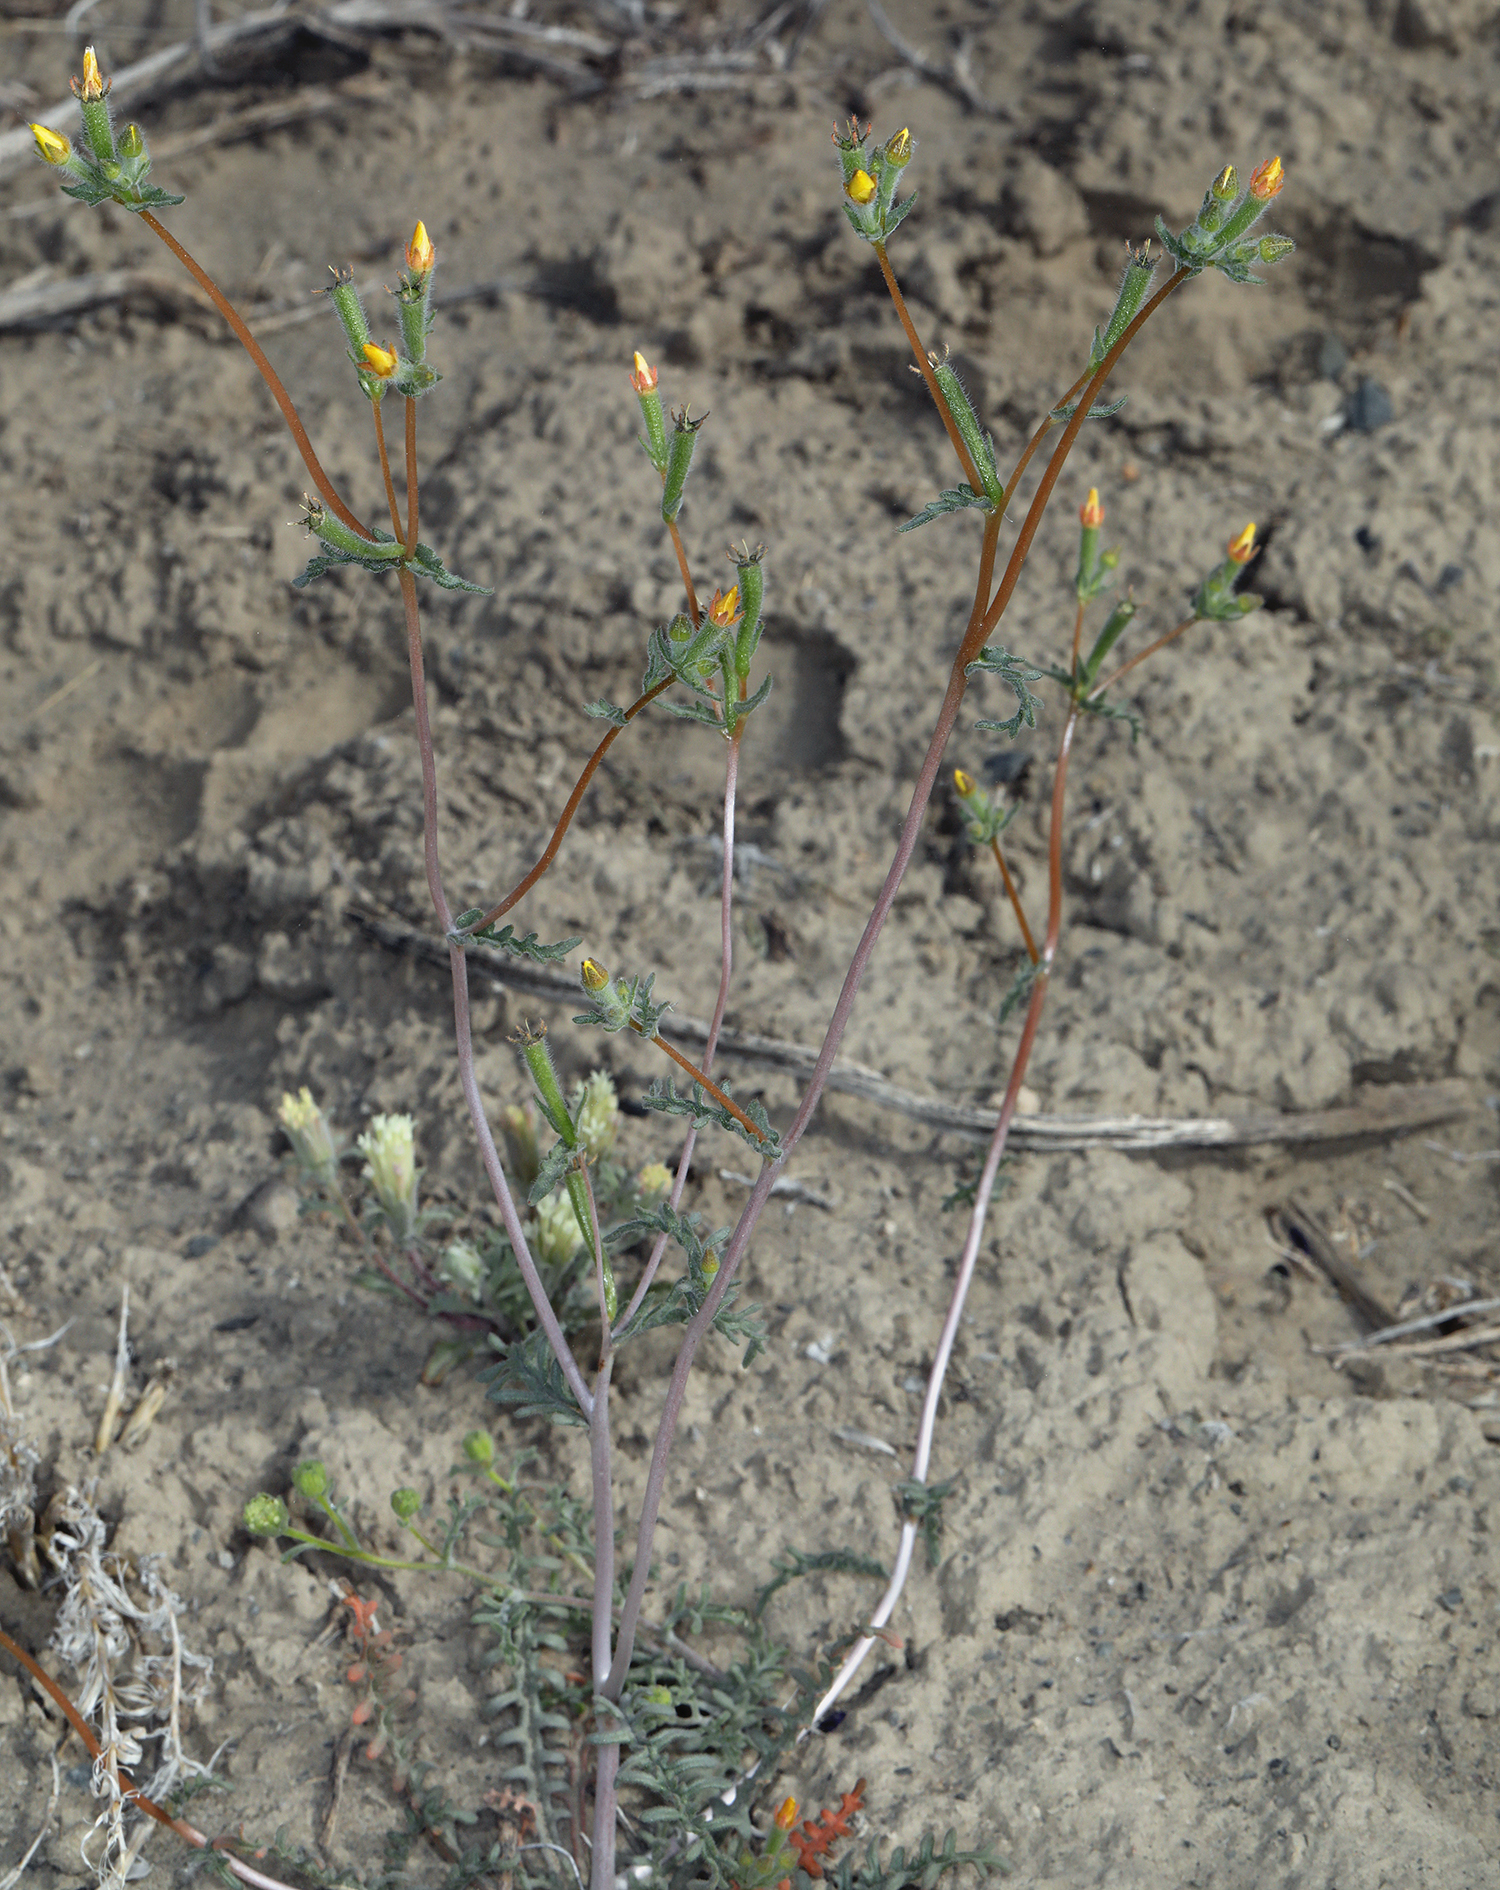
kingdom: Plantae
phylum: Tracheophyta
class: Magnoliopsida
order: Cornales
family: Loasaceae
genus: Mentzelia
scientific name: Mentzelia albicaulis
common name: White-stem blazingstar
